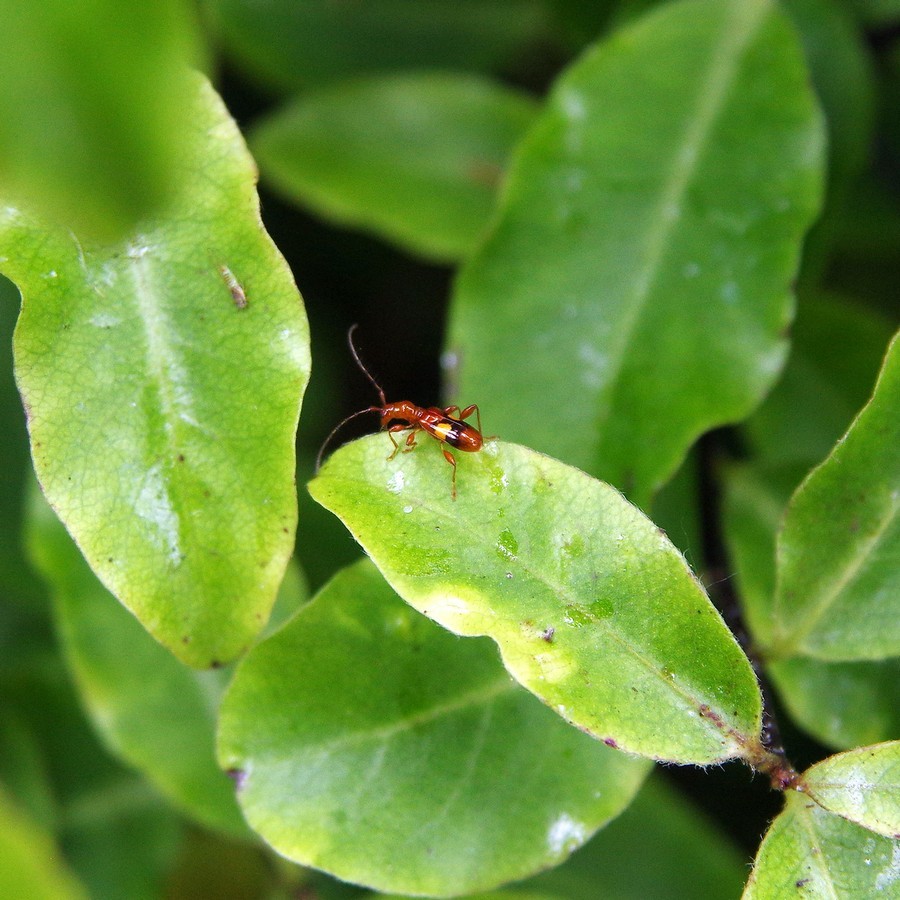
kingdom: Animalia
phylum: Arthropoda
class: Insecta
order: Coleoptera
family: Cerambycidae
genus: Zorion
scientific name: Zorion australe
